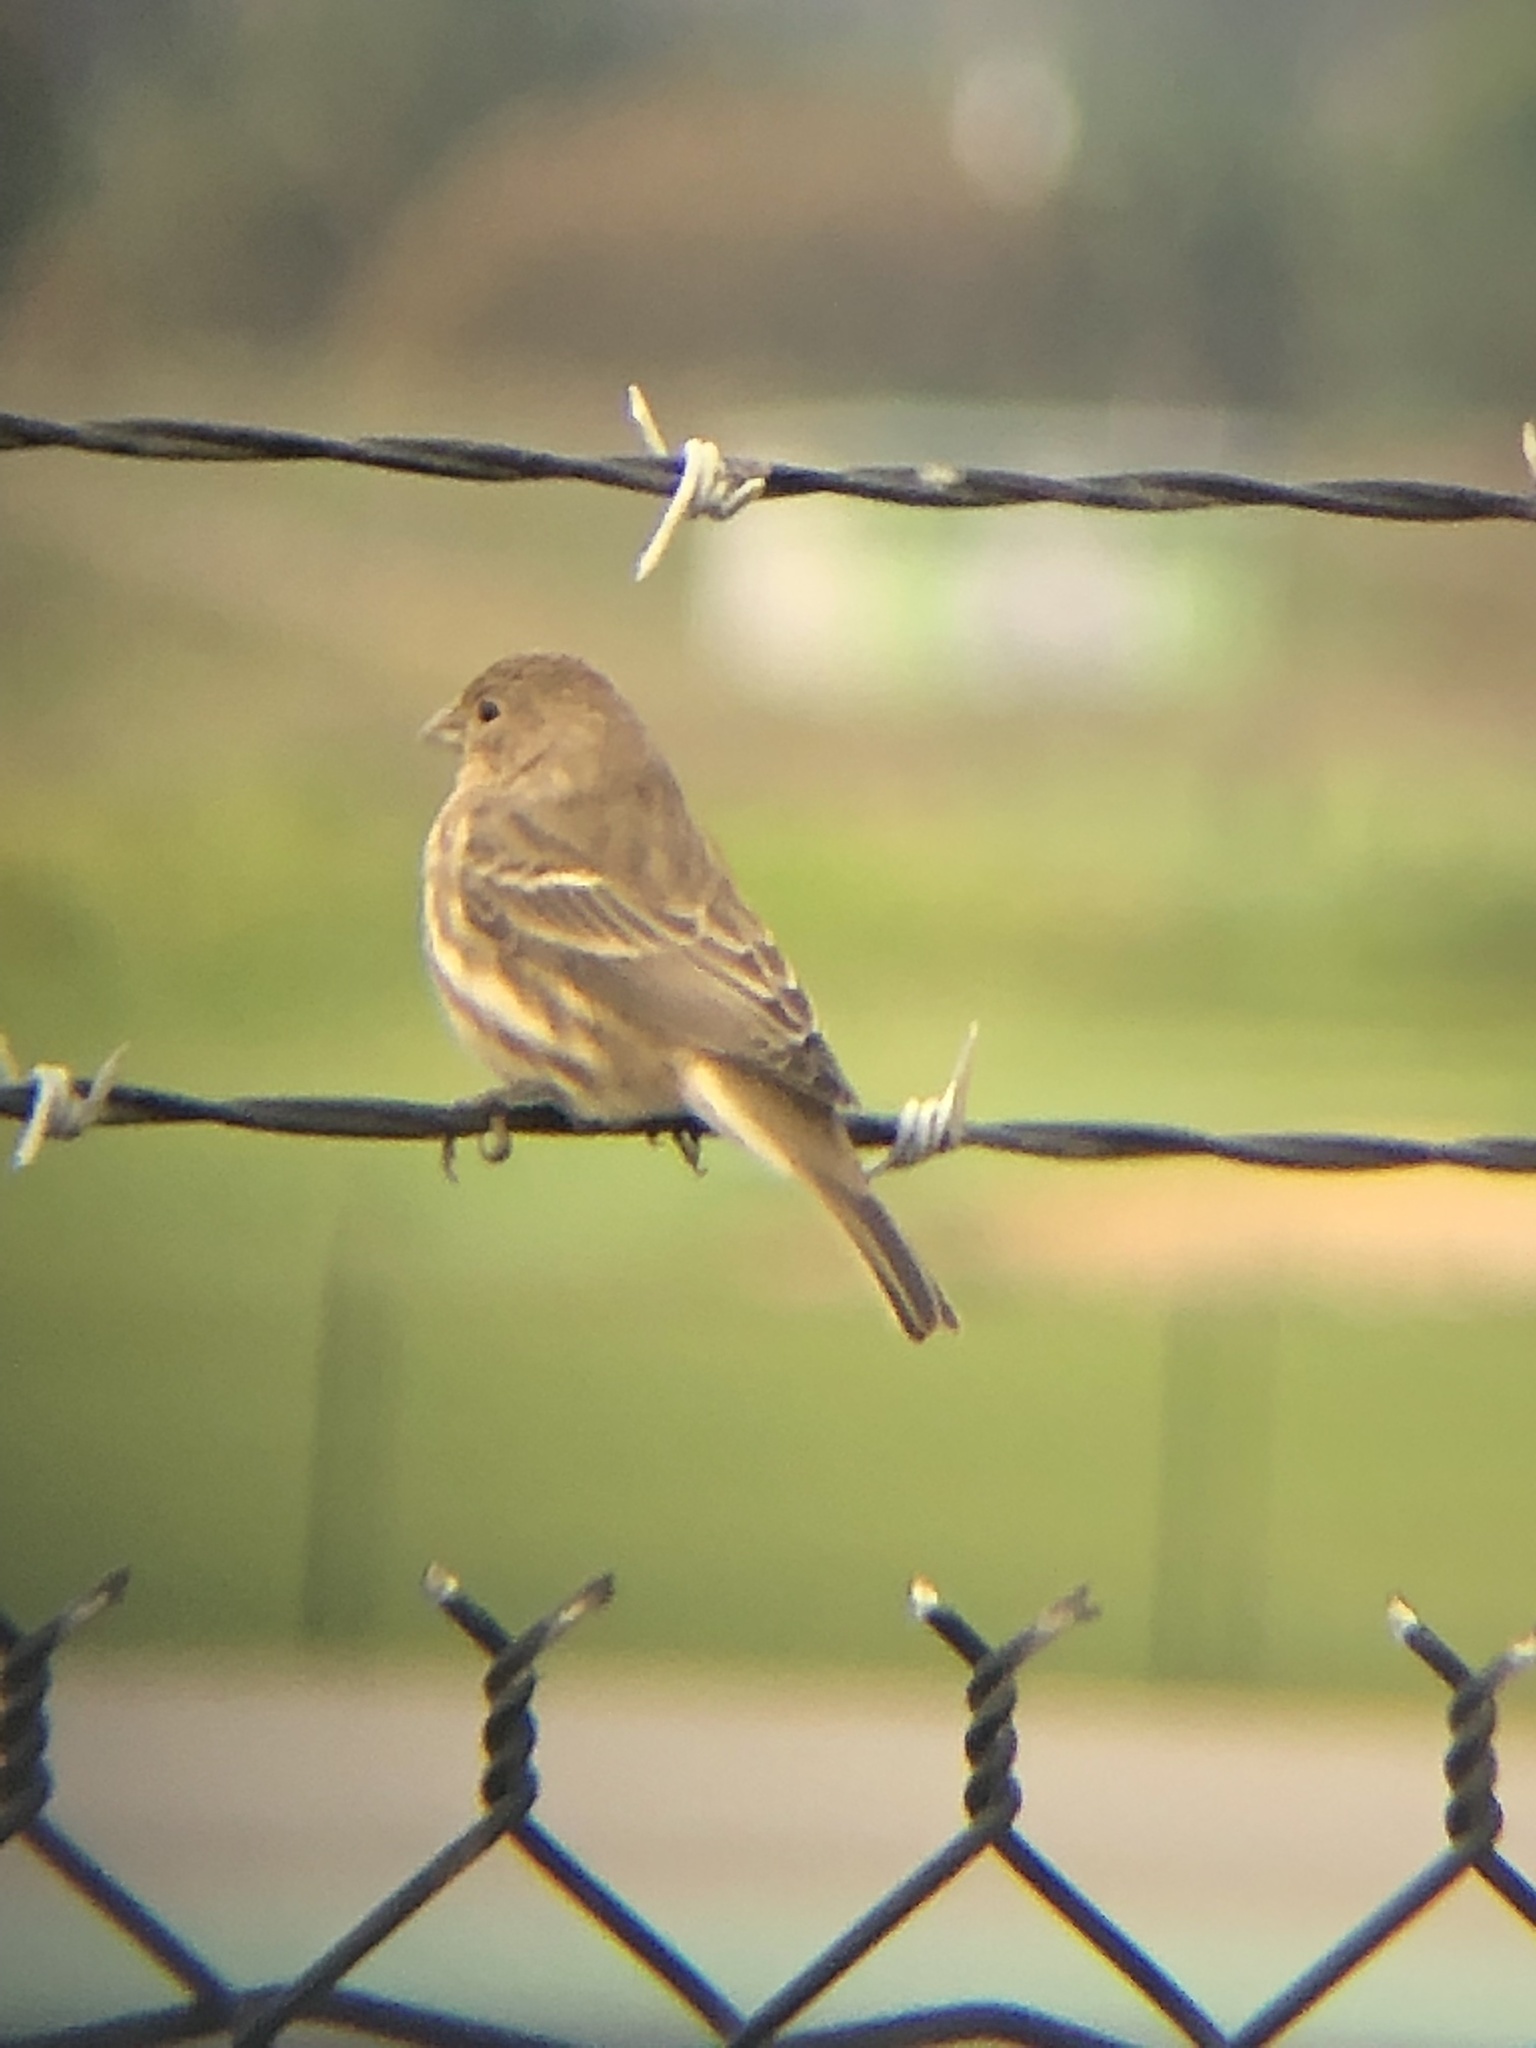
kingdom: Animalia
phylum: Chordata
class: Aves
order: Passeriformes
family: Fringillidae
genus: Haemorhous
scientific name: Haemorhous mexicanus
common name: House finch
